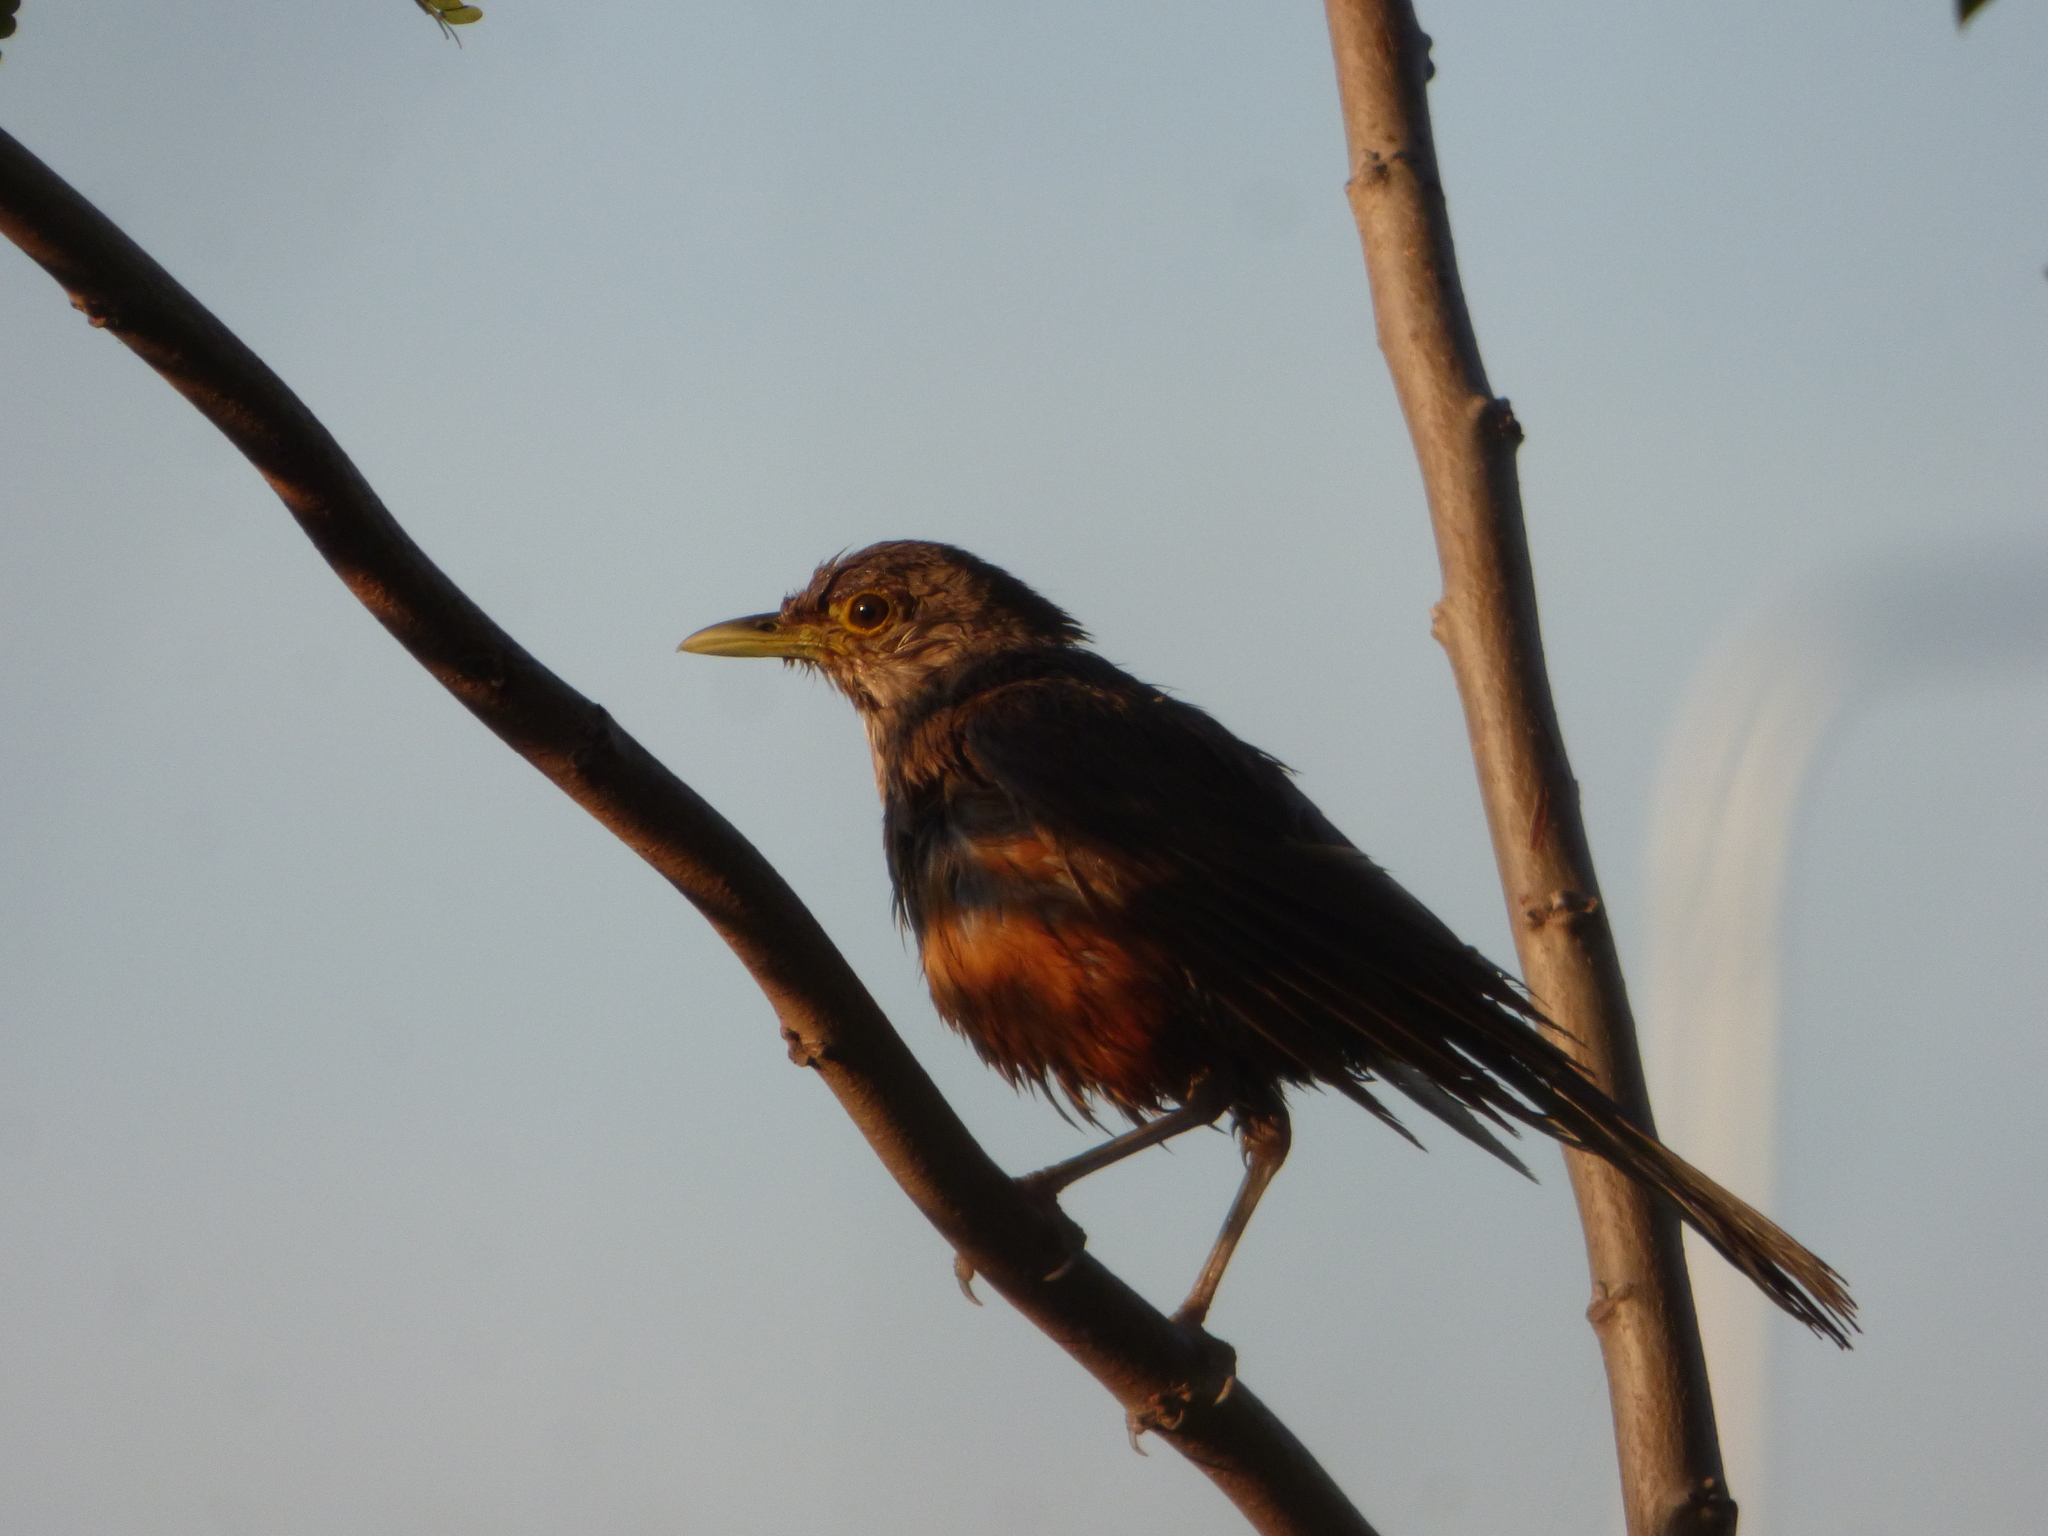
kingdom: Animalia
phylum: Chordata
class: Aves
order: Passeriformes
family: Turdidae
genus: Turdus
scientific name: Turdus rufiventris
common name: Rufous-bellied thrush
